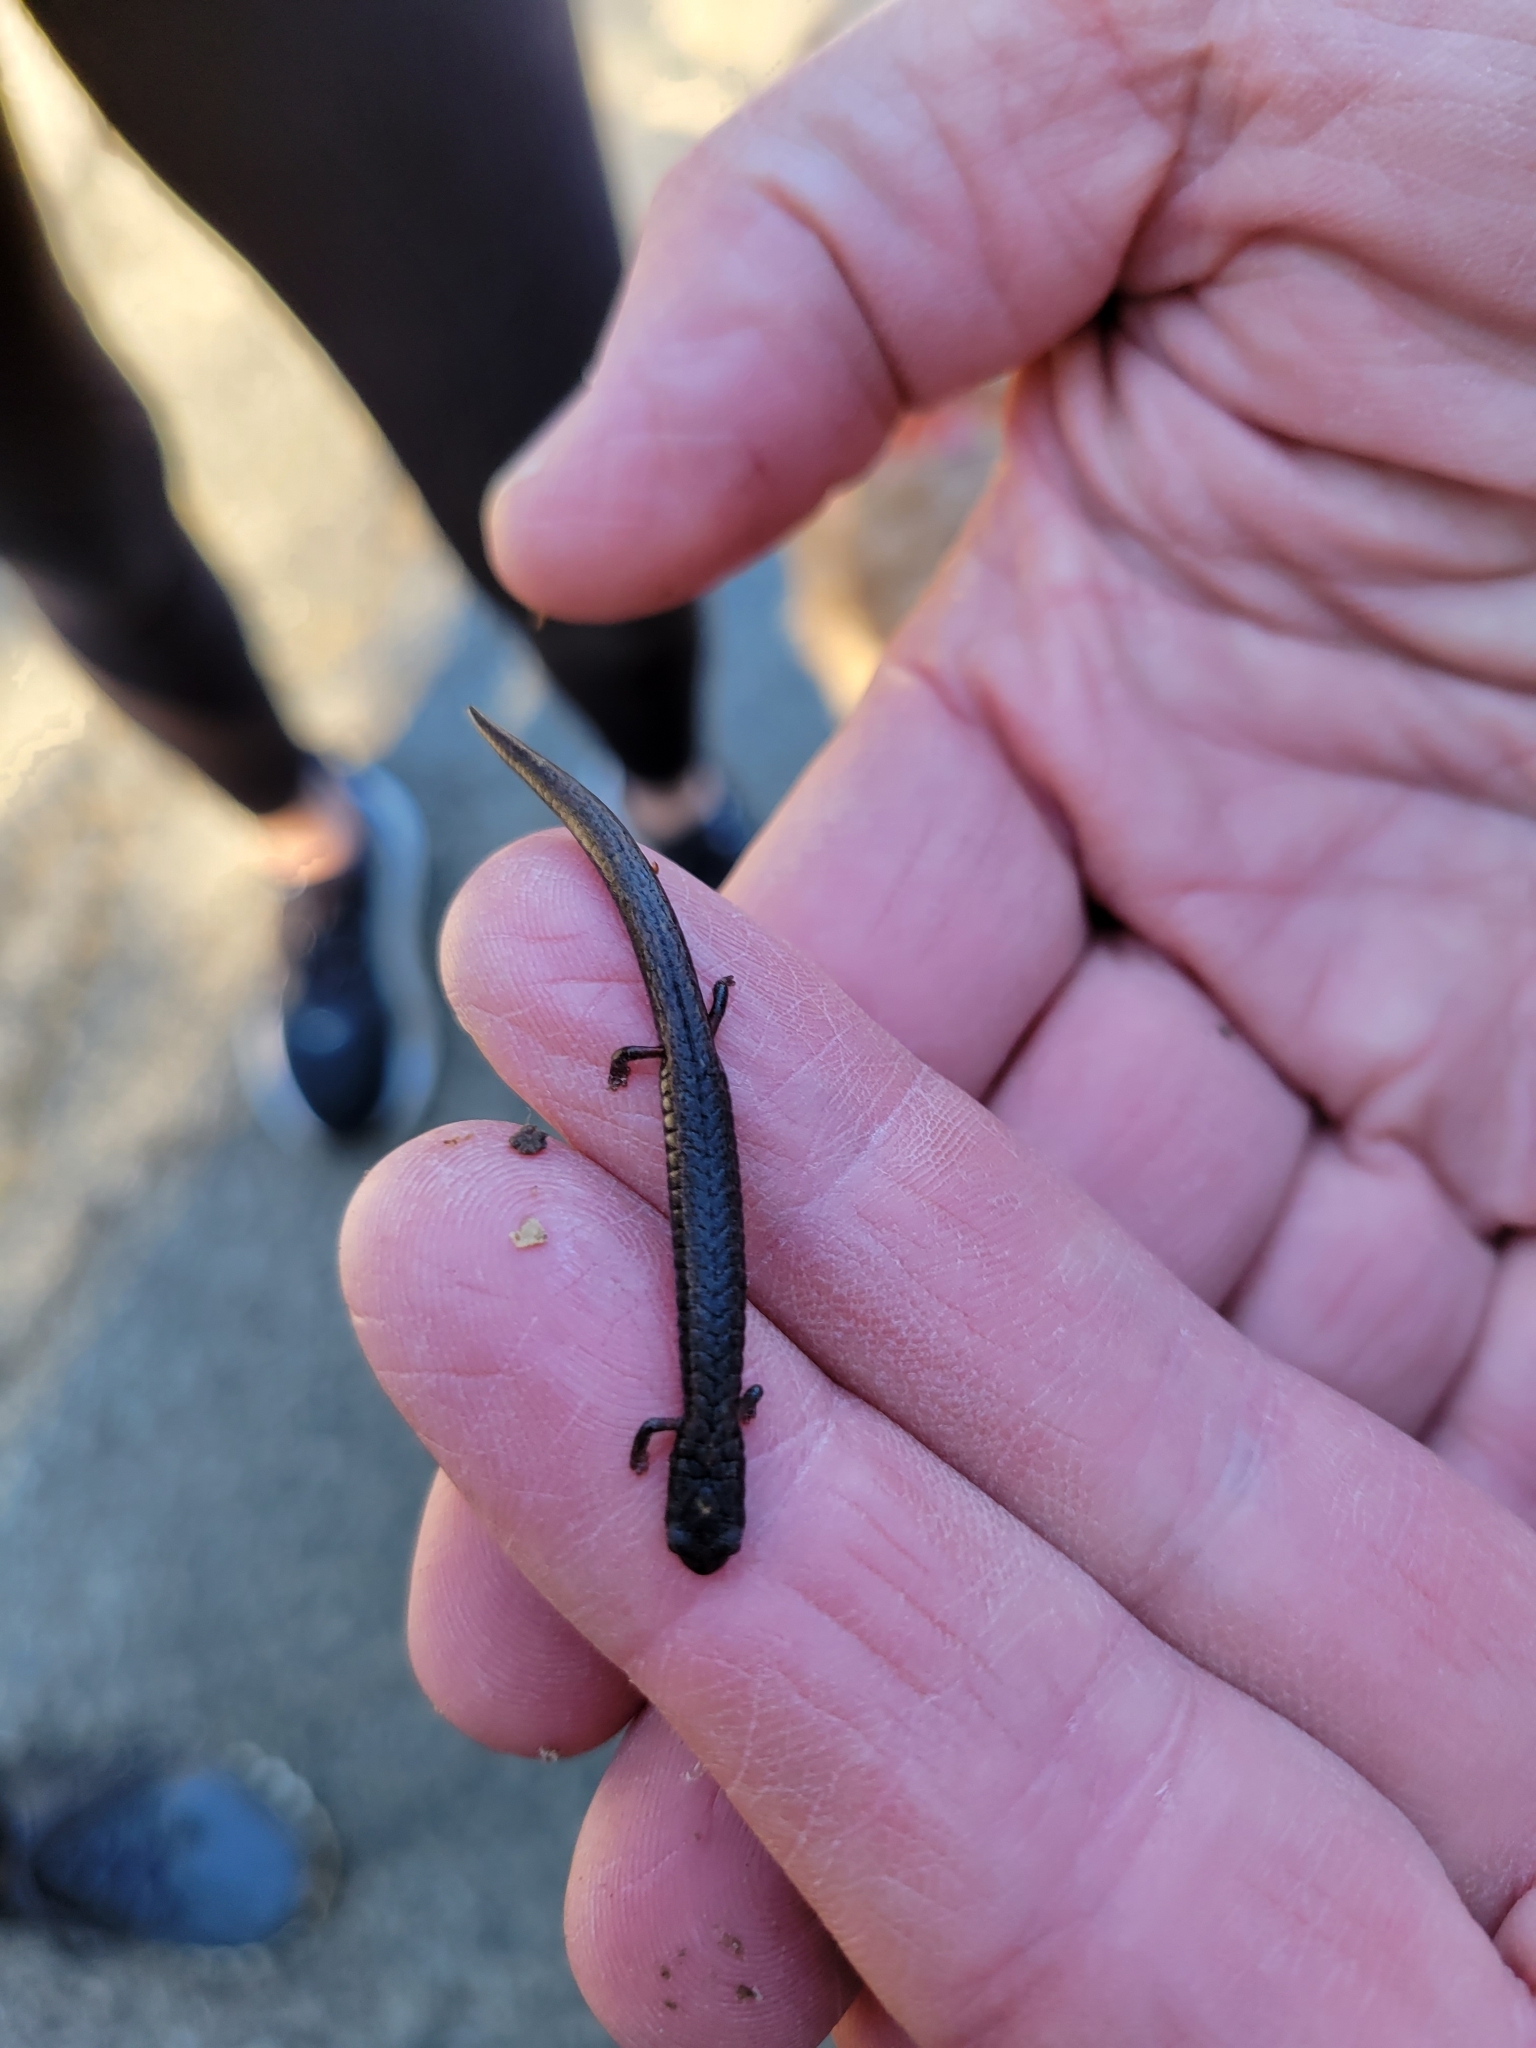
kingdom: Animalia
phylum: Chordata
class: Amphibia
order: Caudata
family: Plethodontidae
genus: Batrachoseps
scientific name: Batrachoseps attenuatus
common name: California slender salamander
